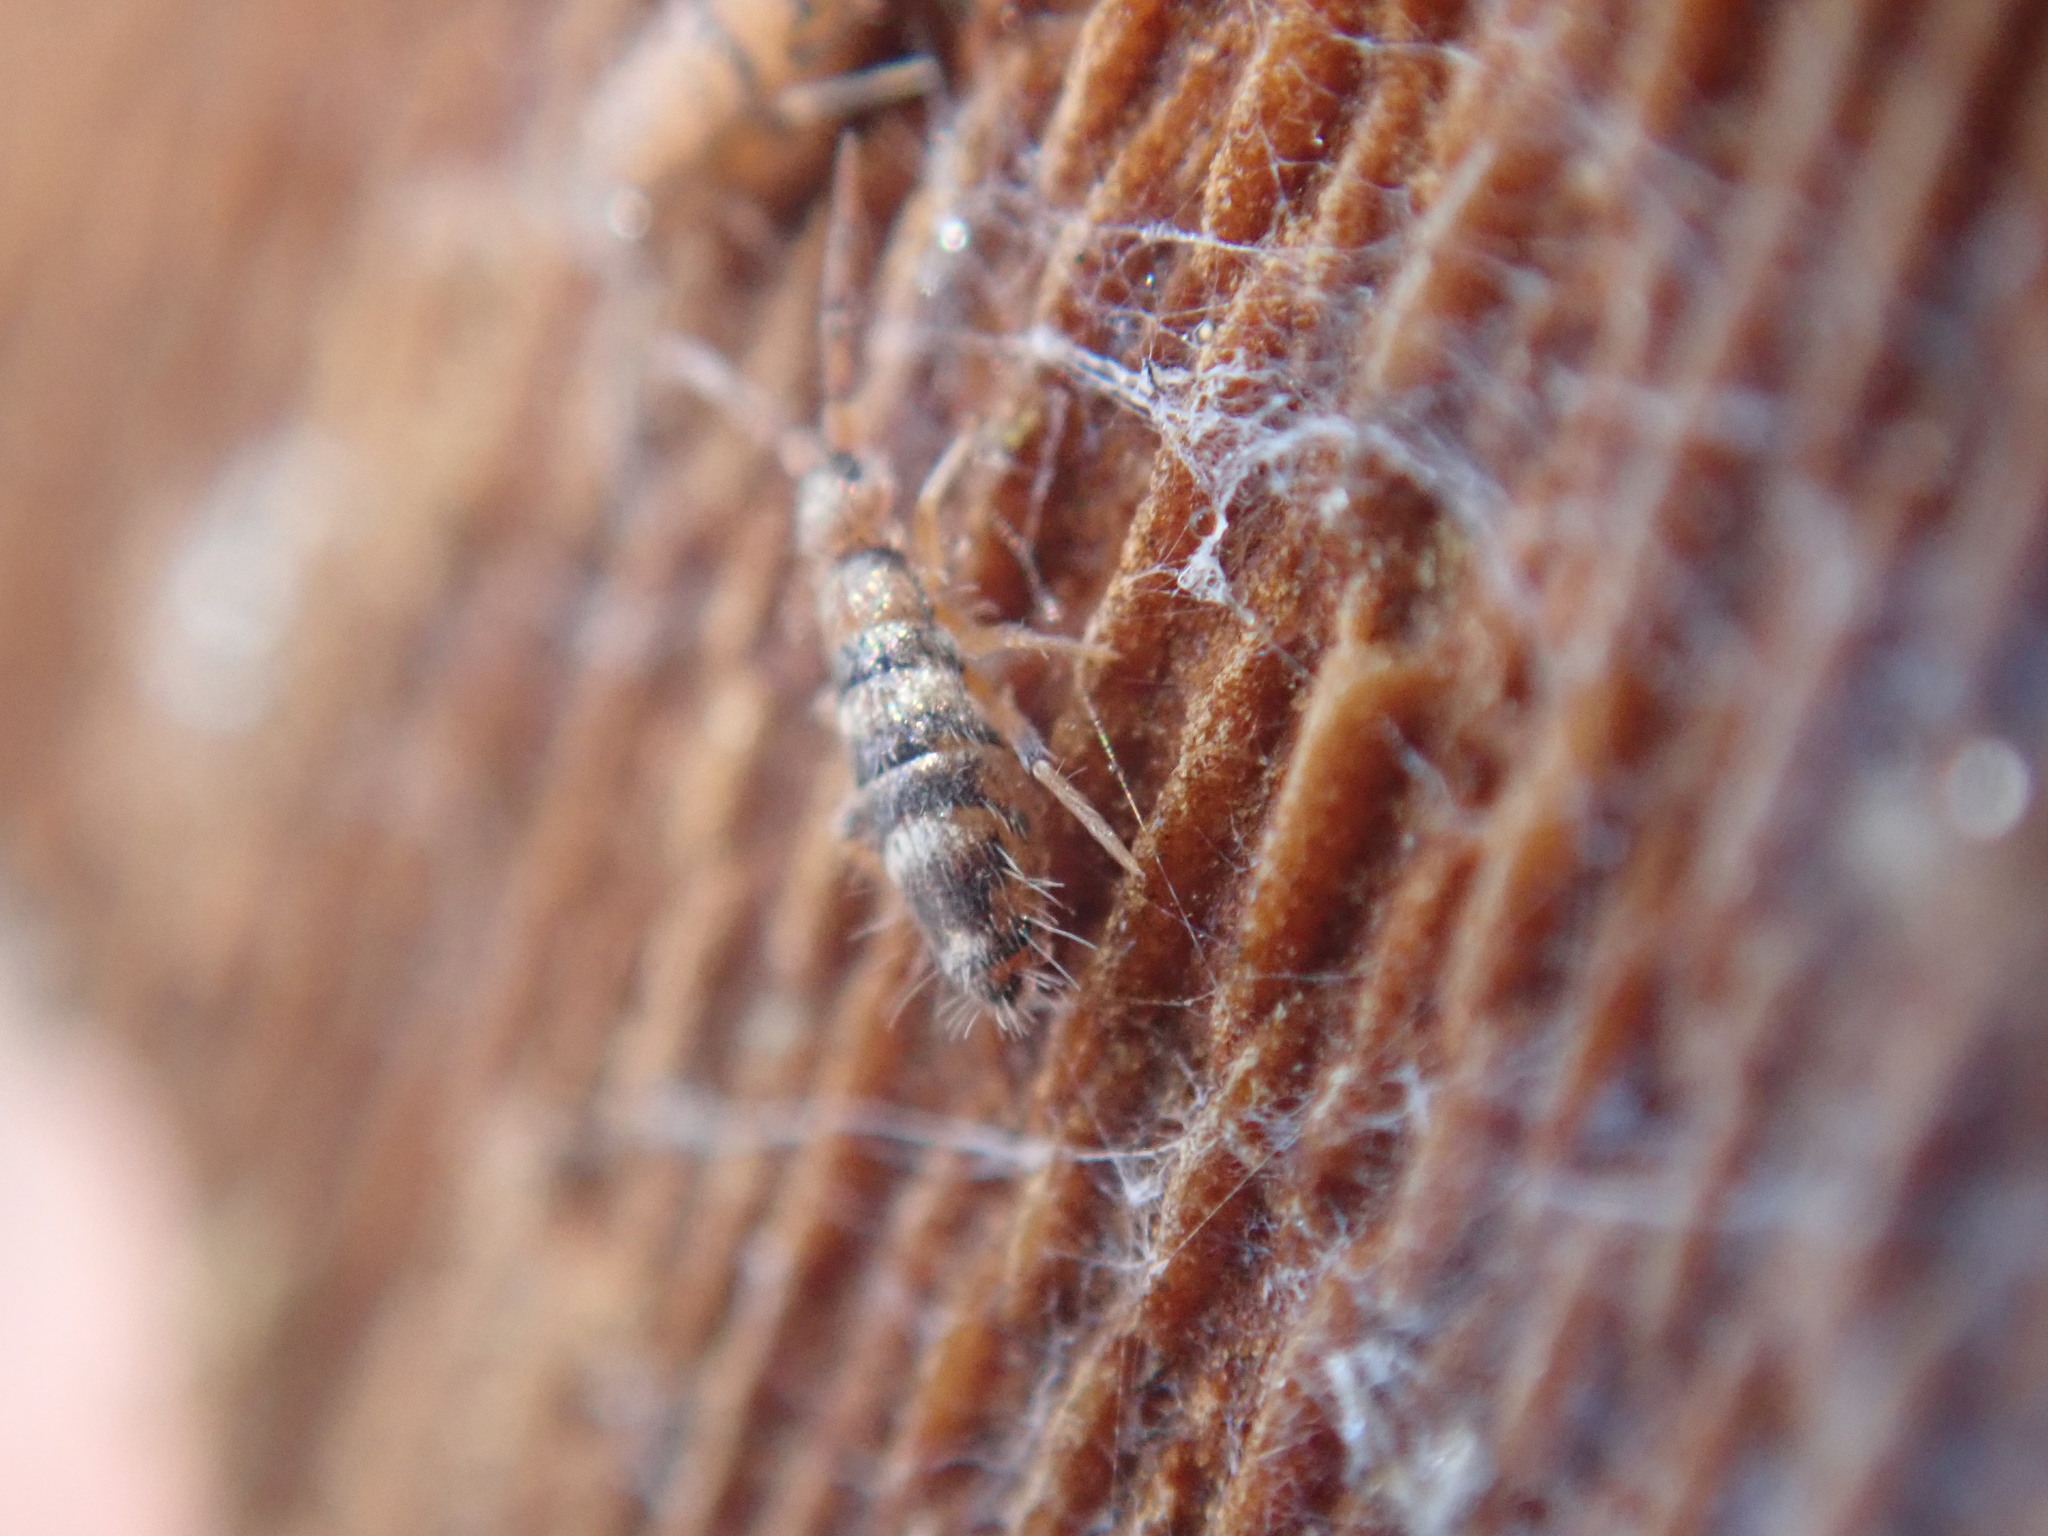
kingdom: Animalia
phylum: Arthropoda
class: Collembola
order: Entomobryomorpha
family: Entomobryidae
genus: Willowsia
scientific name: Willowsia platani
